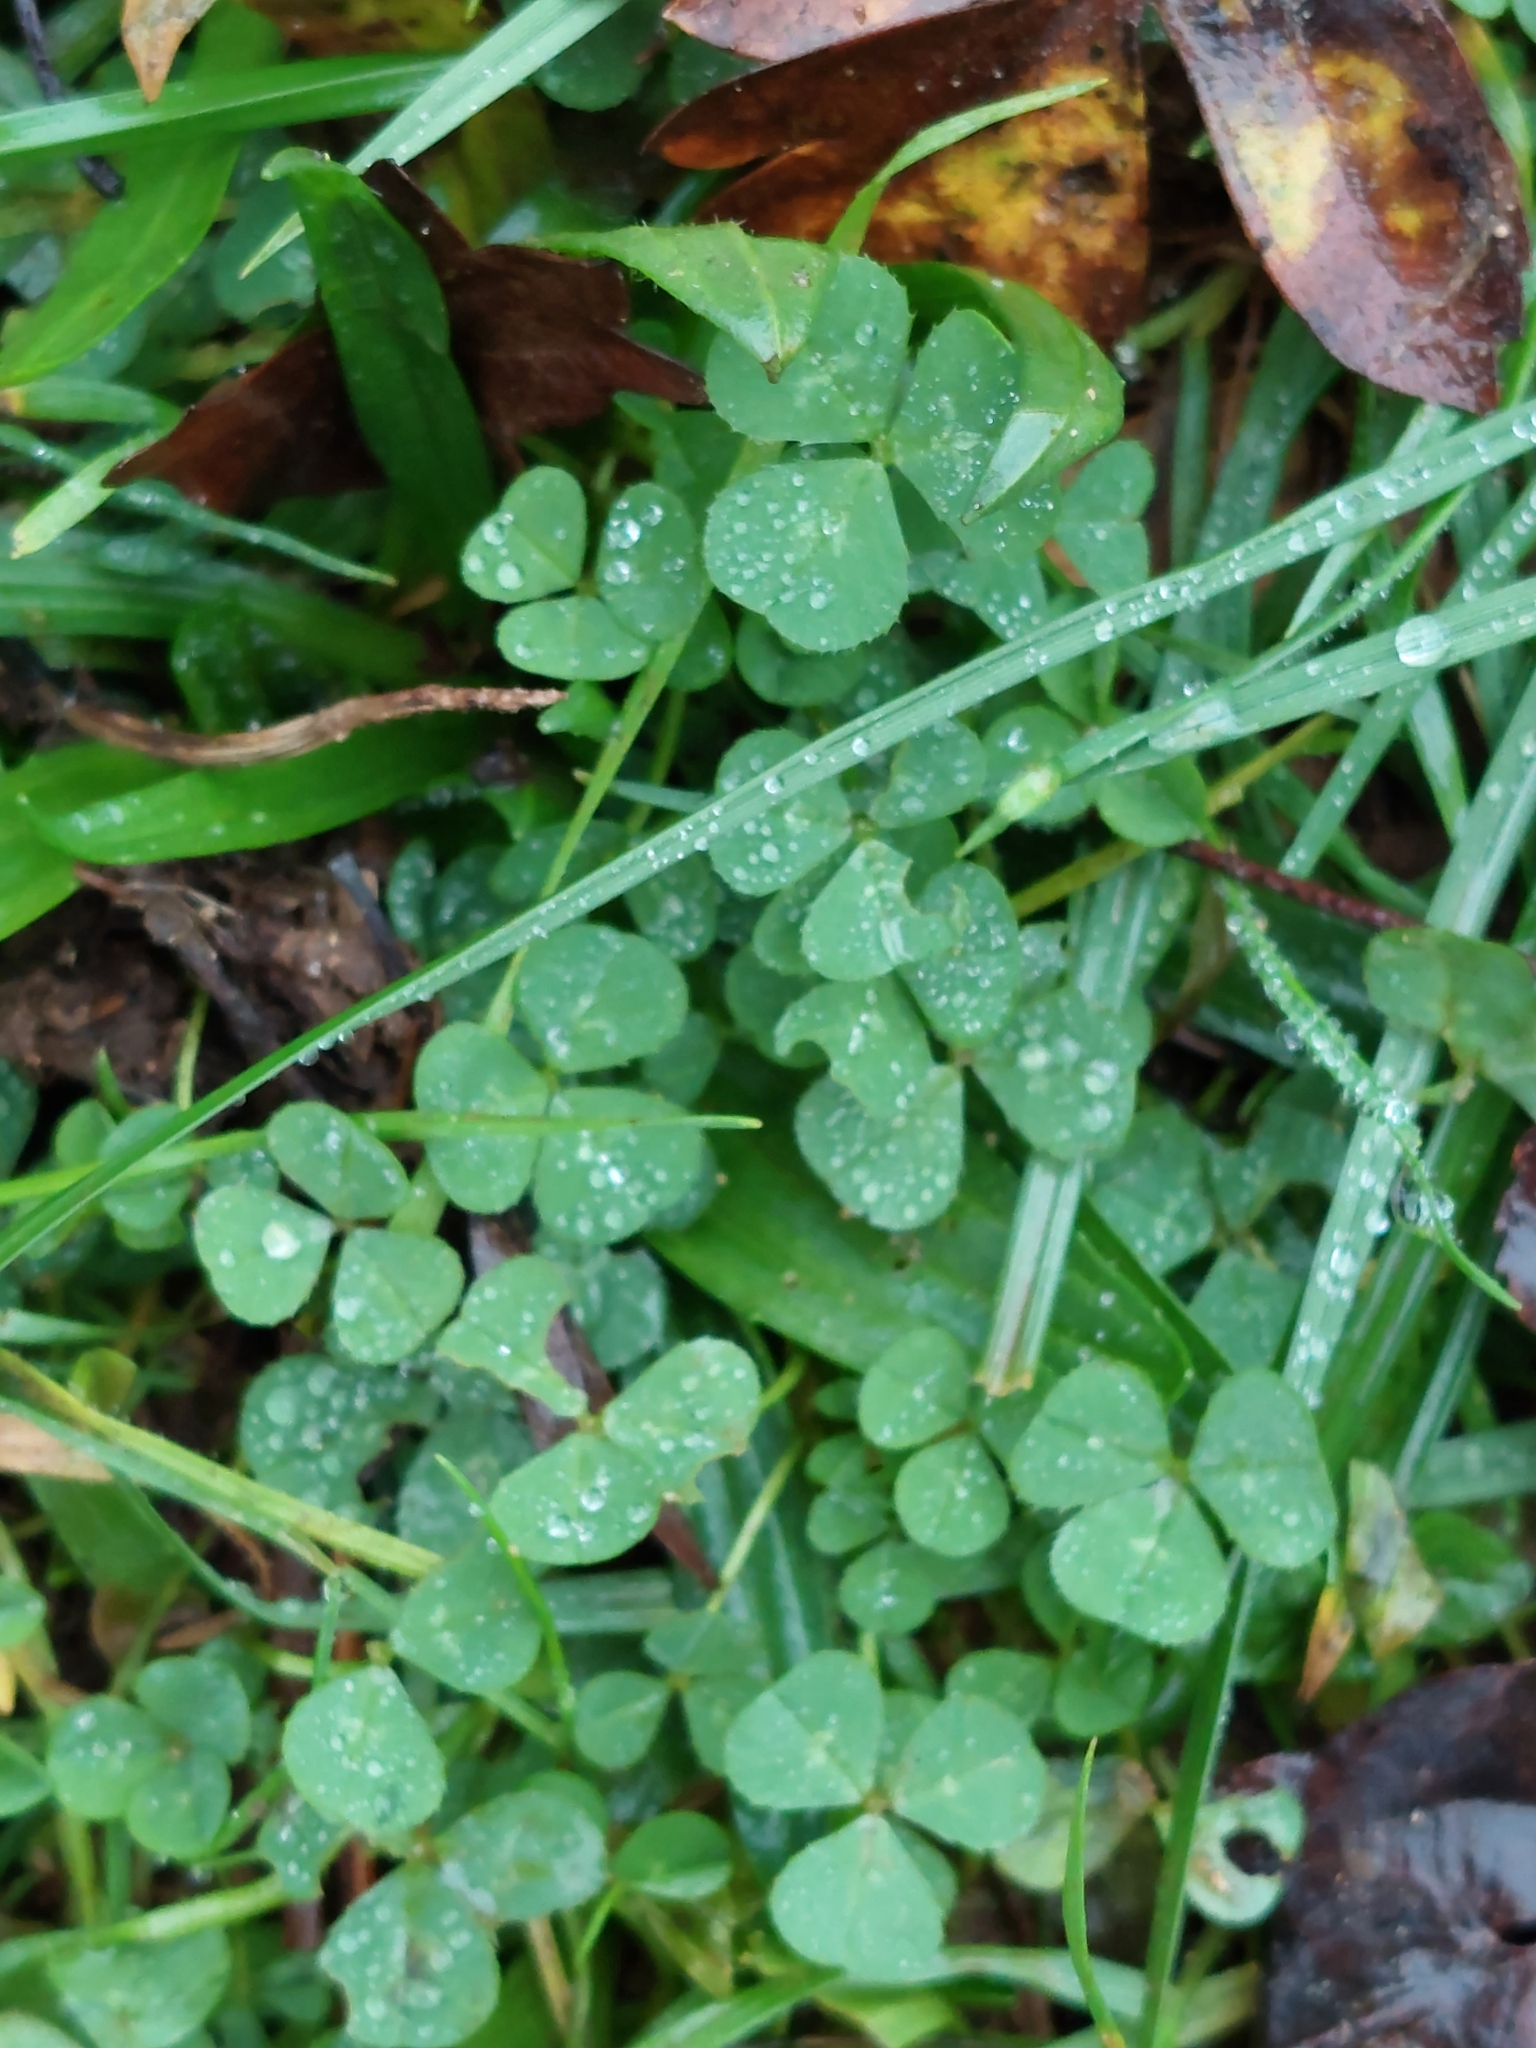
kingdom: Plantae
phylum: Tracheophyta
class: Magnoliopsida
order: Fabales
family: Fabaceae
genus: Trifolium
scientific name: Trifolium repens
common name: White clover
